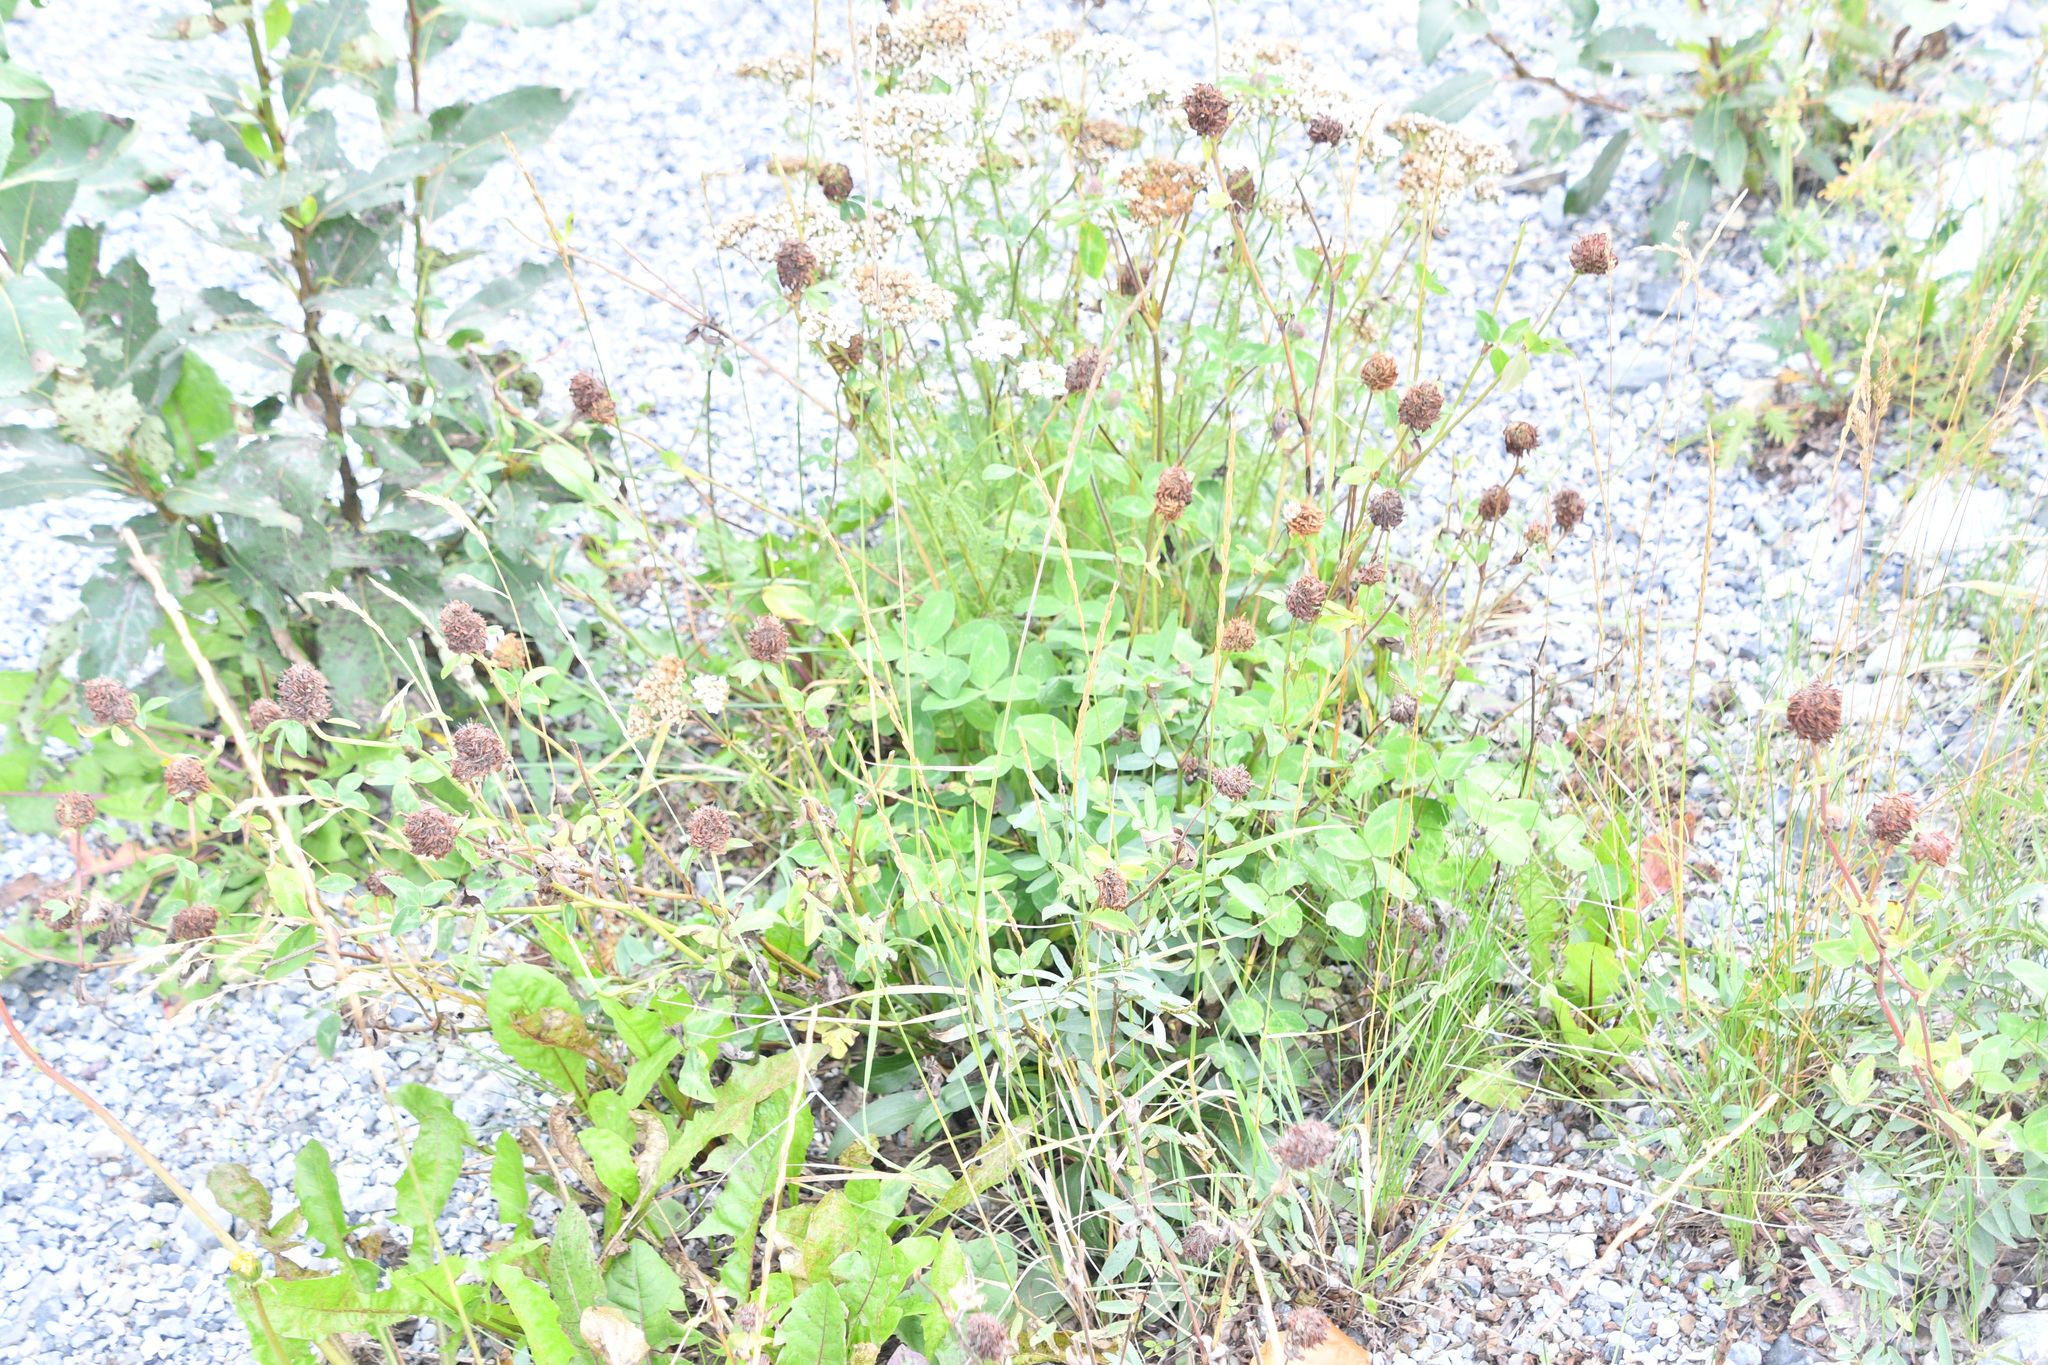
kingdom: Plantae
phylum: Tracheophyta
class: Magnoliopsida
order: Fabales
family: Fabaceae
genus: Trifolium
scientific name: Trifolium pratense
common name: Red clover
